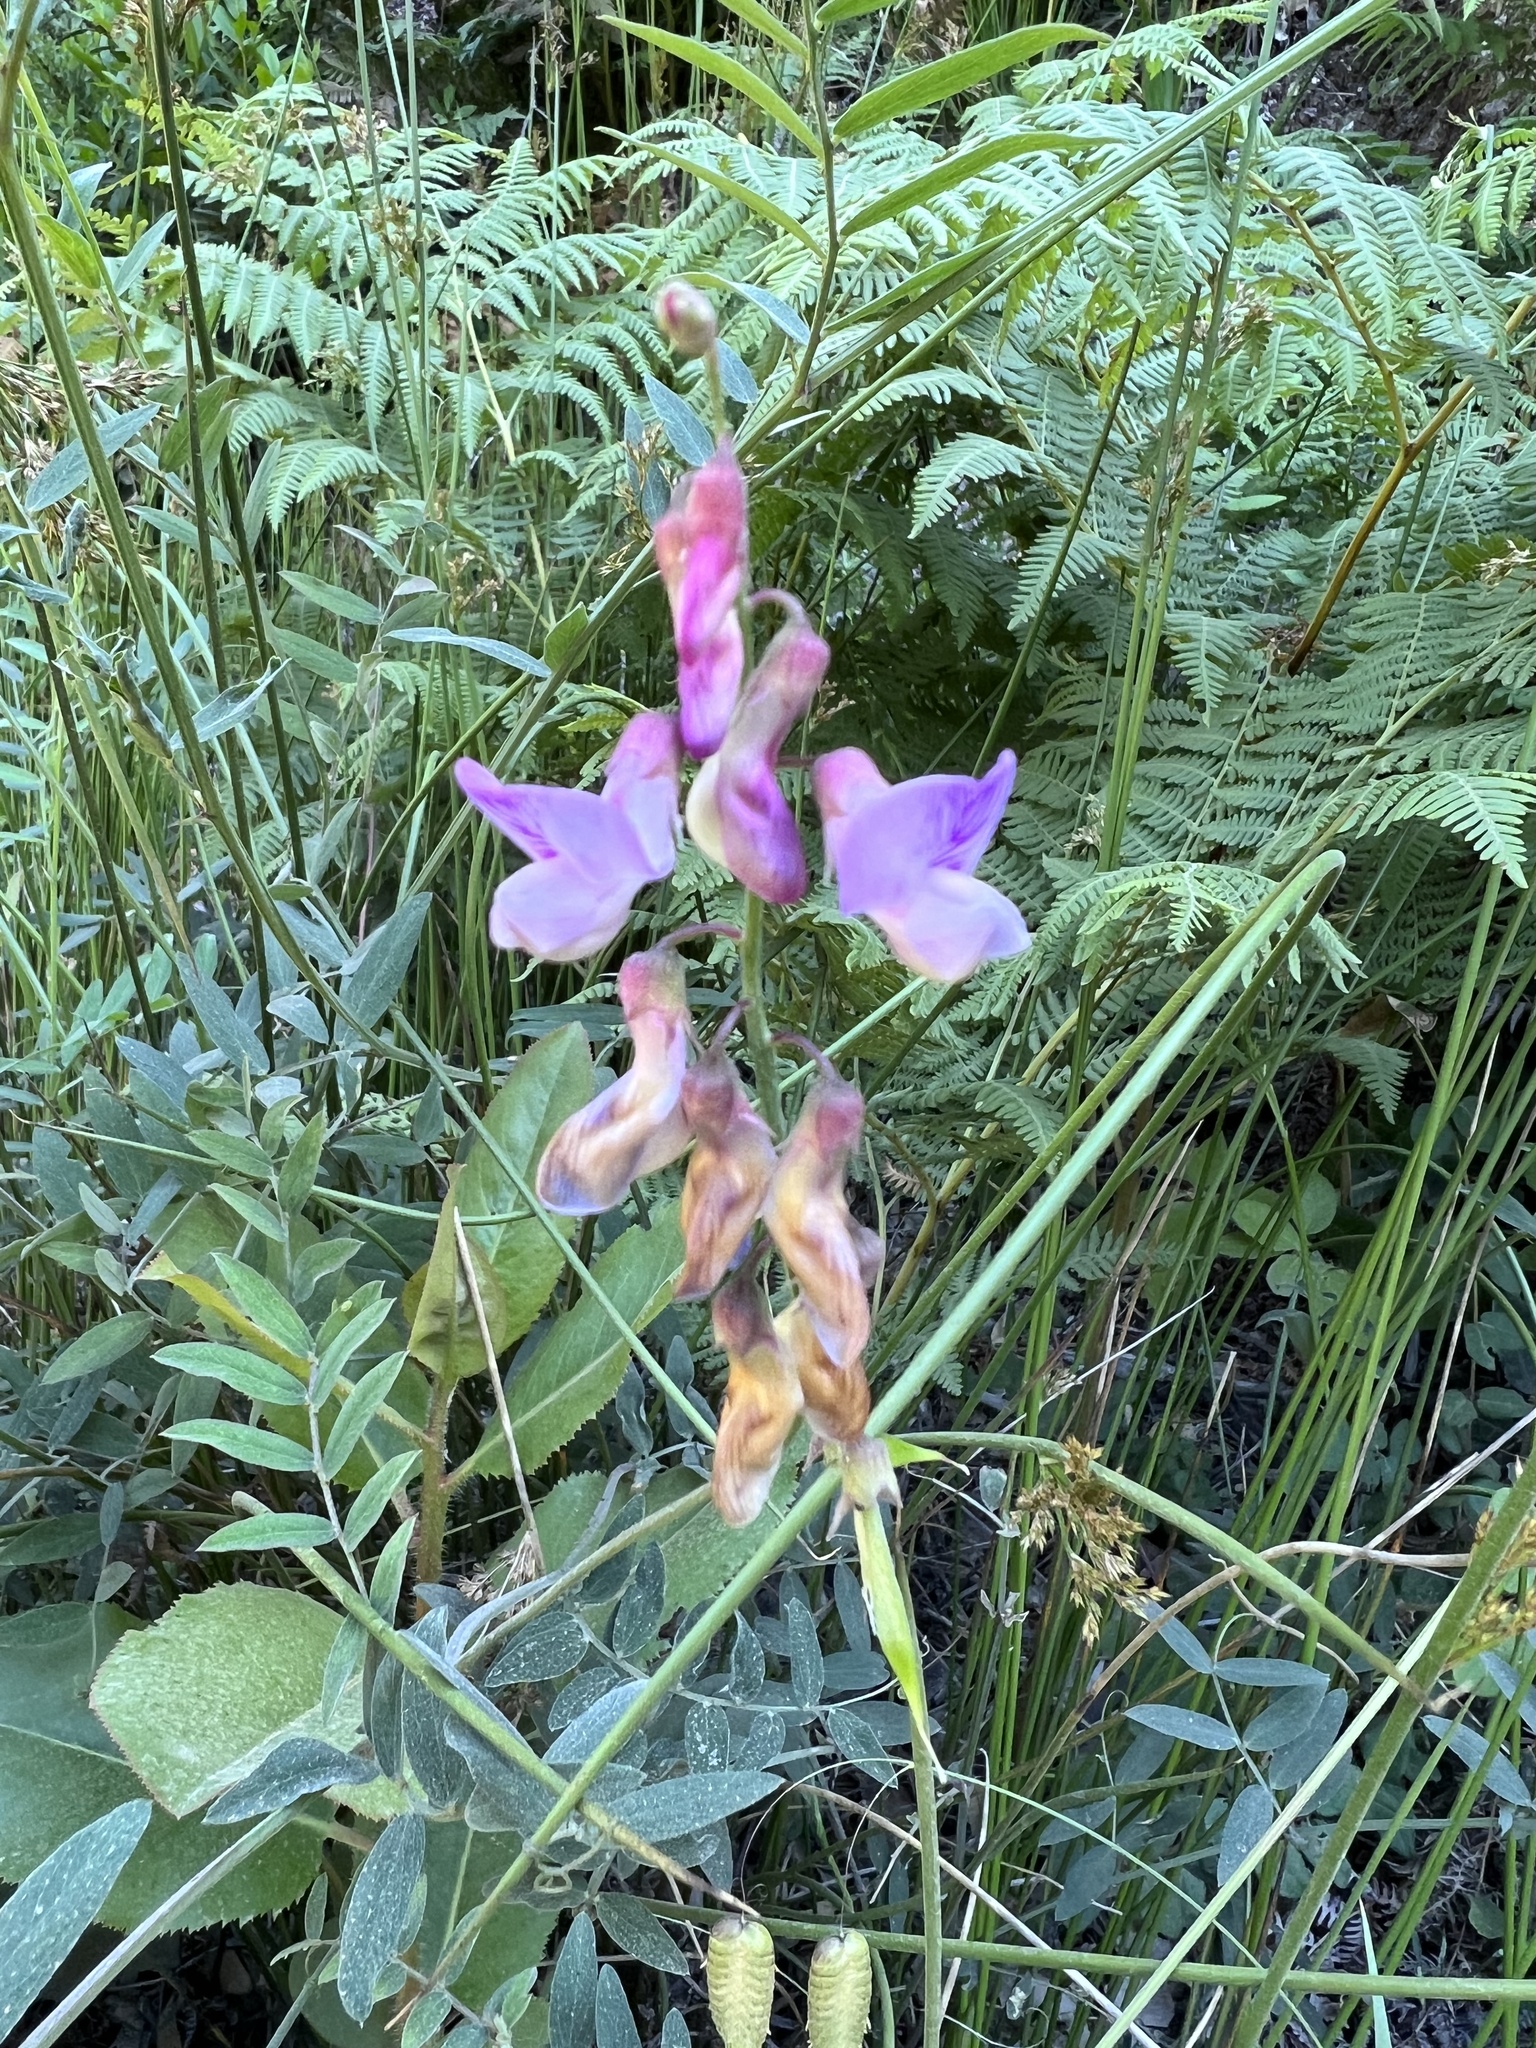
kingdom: Plantae
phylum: Tracheophyta
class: Magnoliopsida
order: Fabales
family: Fabaceae
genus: Lathyrus
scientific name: Lathyrus vestitus
